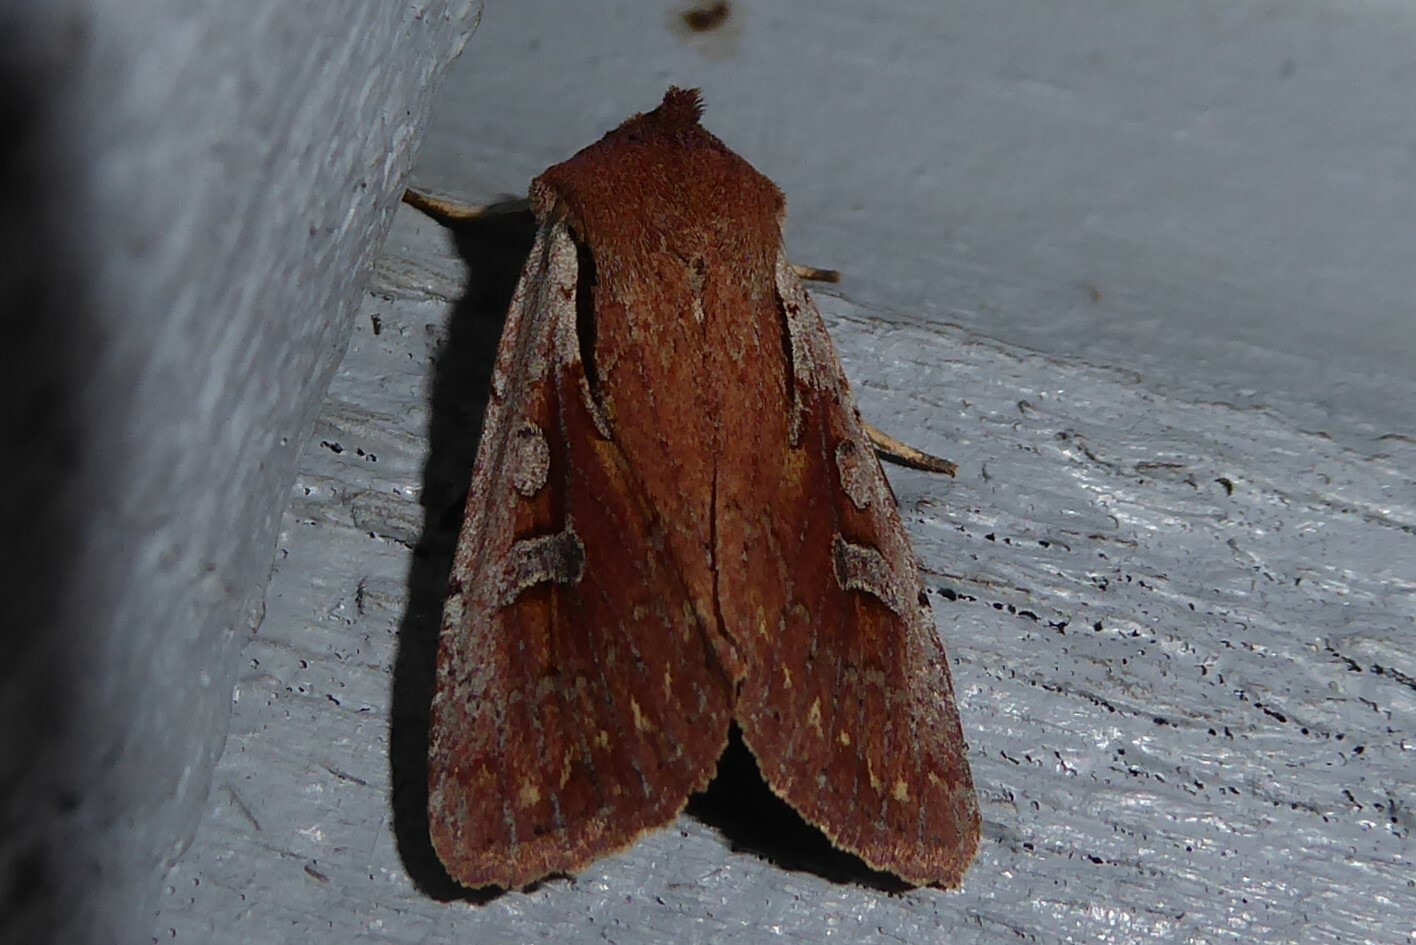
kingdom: Animalia
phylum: Arthropoda
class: Insecta
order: Lepidoptera
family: Noctuidae
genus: Ichneutica
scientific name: Ichneutica atristriga
